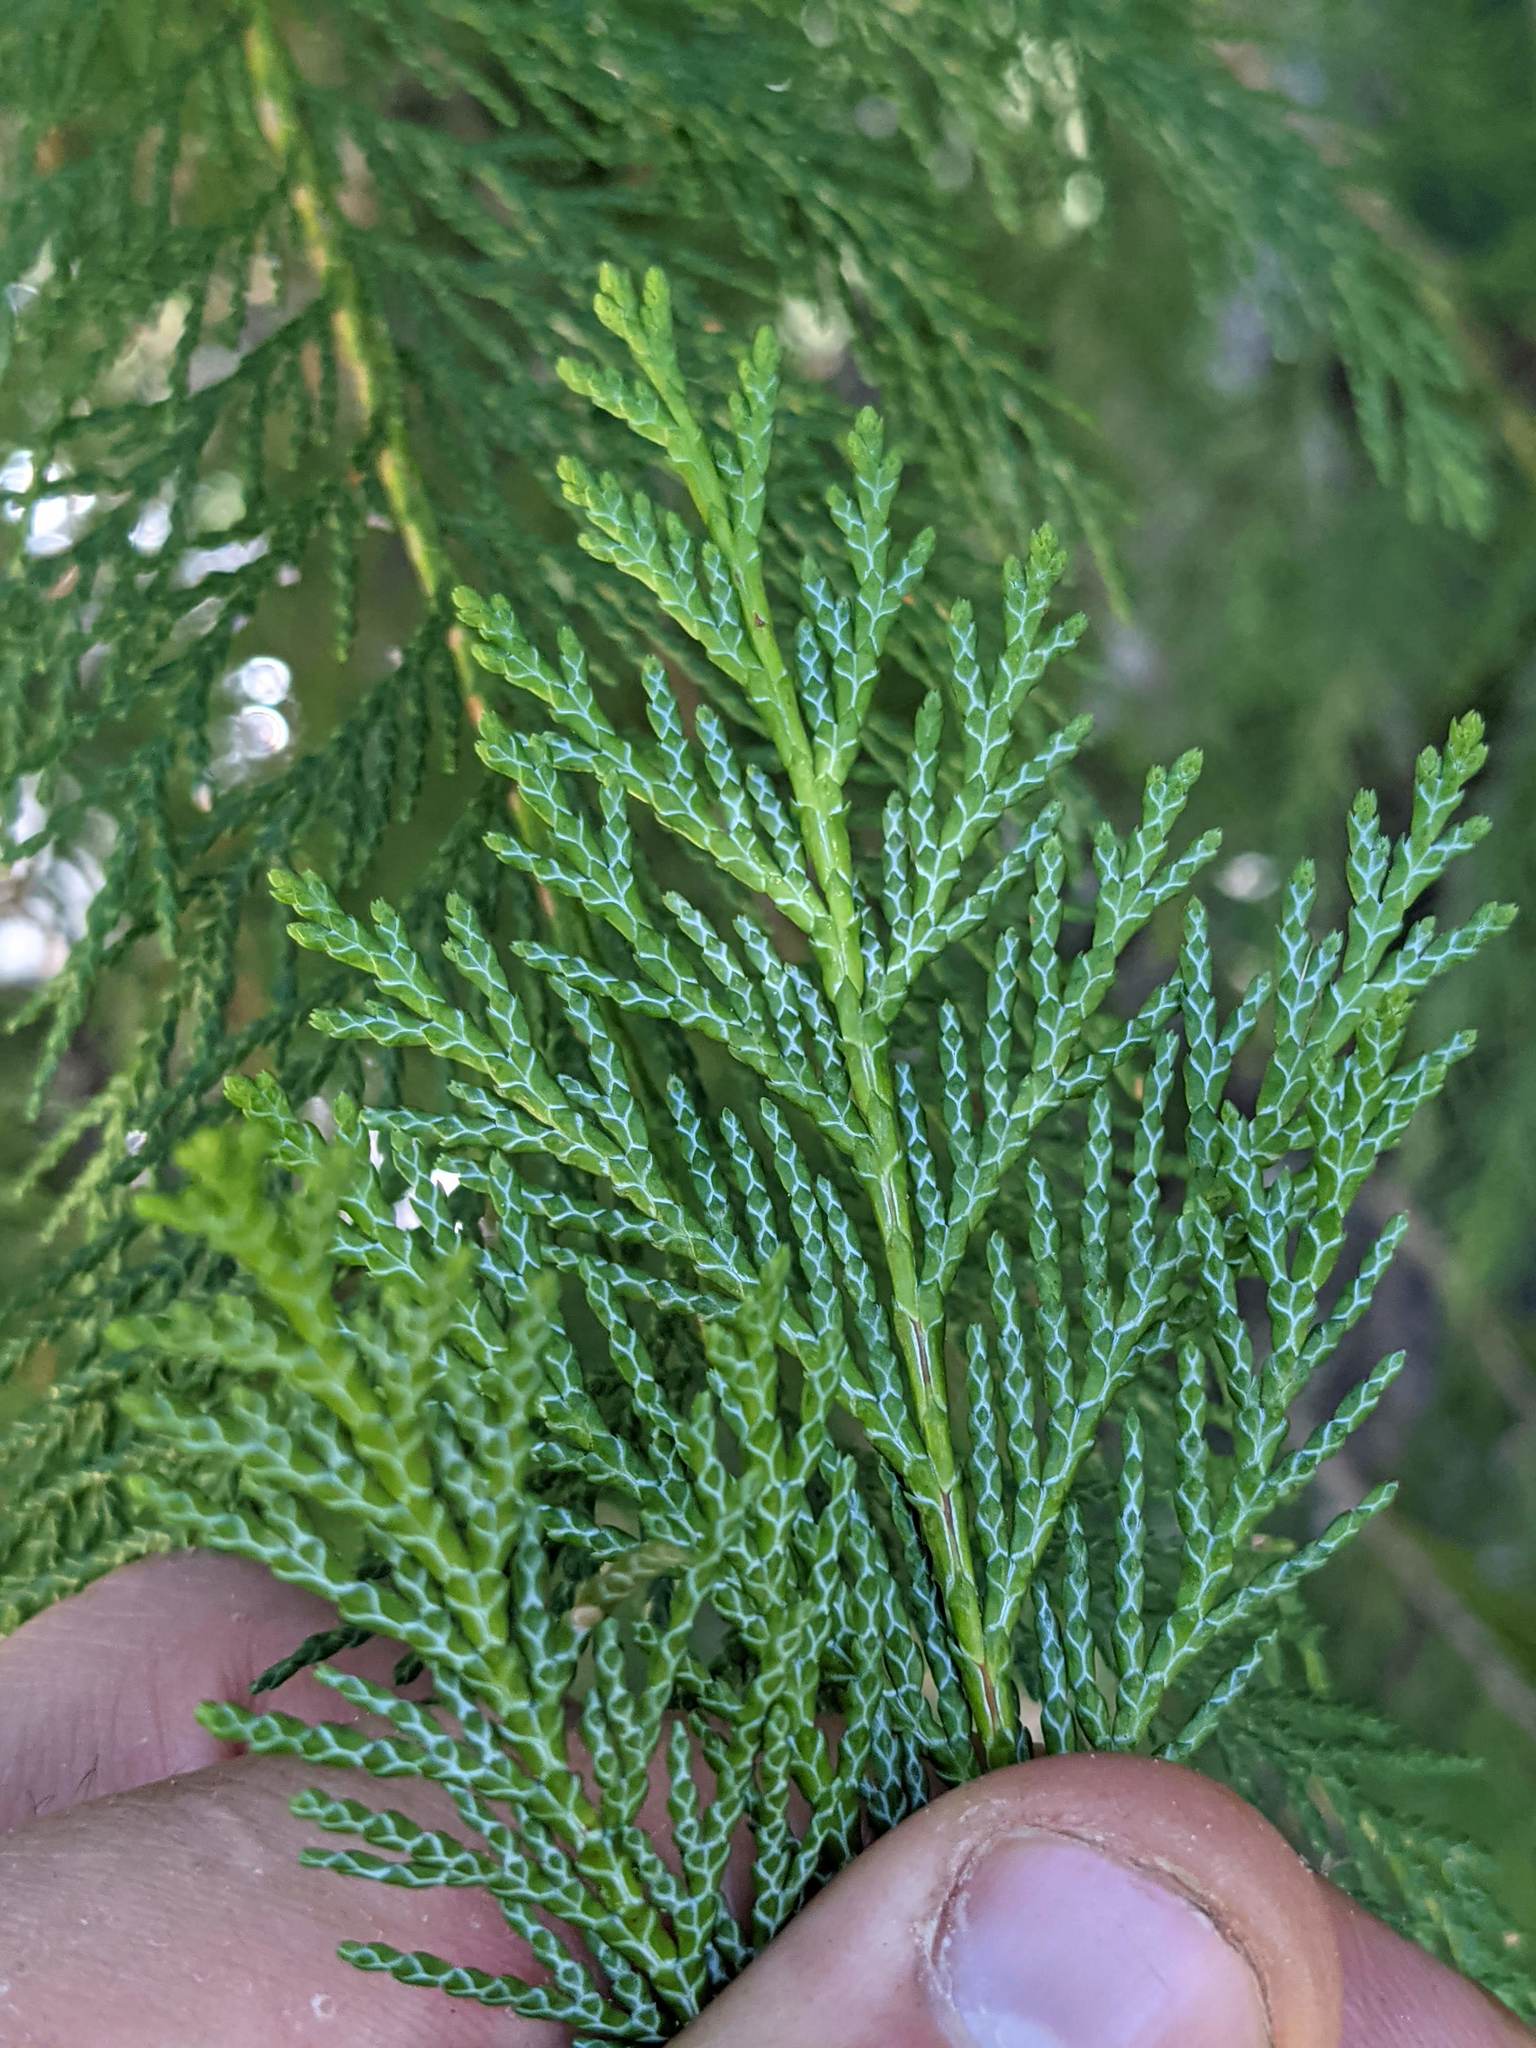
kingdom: Plantae
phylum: Tracheophyta
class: Pinopsida
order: Pinales
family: Cupressaceae
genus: Chamaecyparis
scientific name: Chamaecyparis lawsoniana
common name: Lawson's cypress
